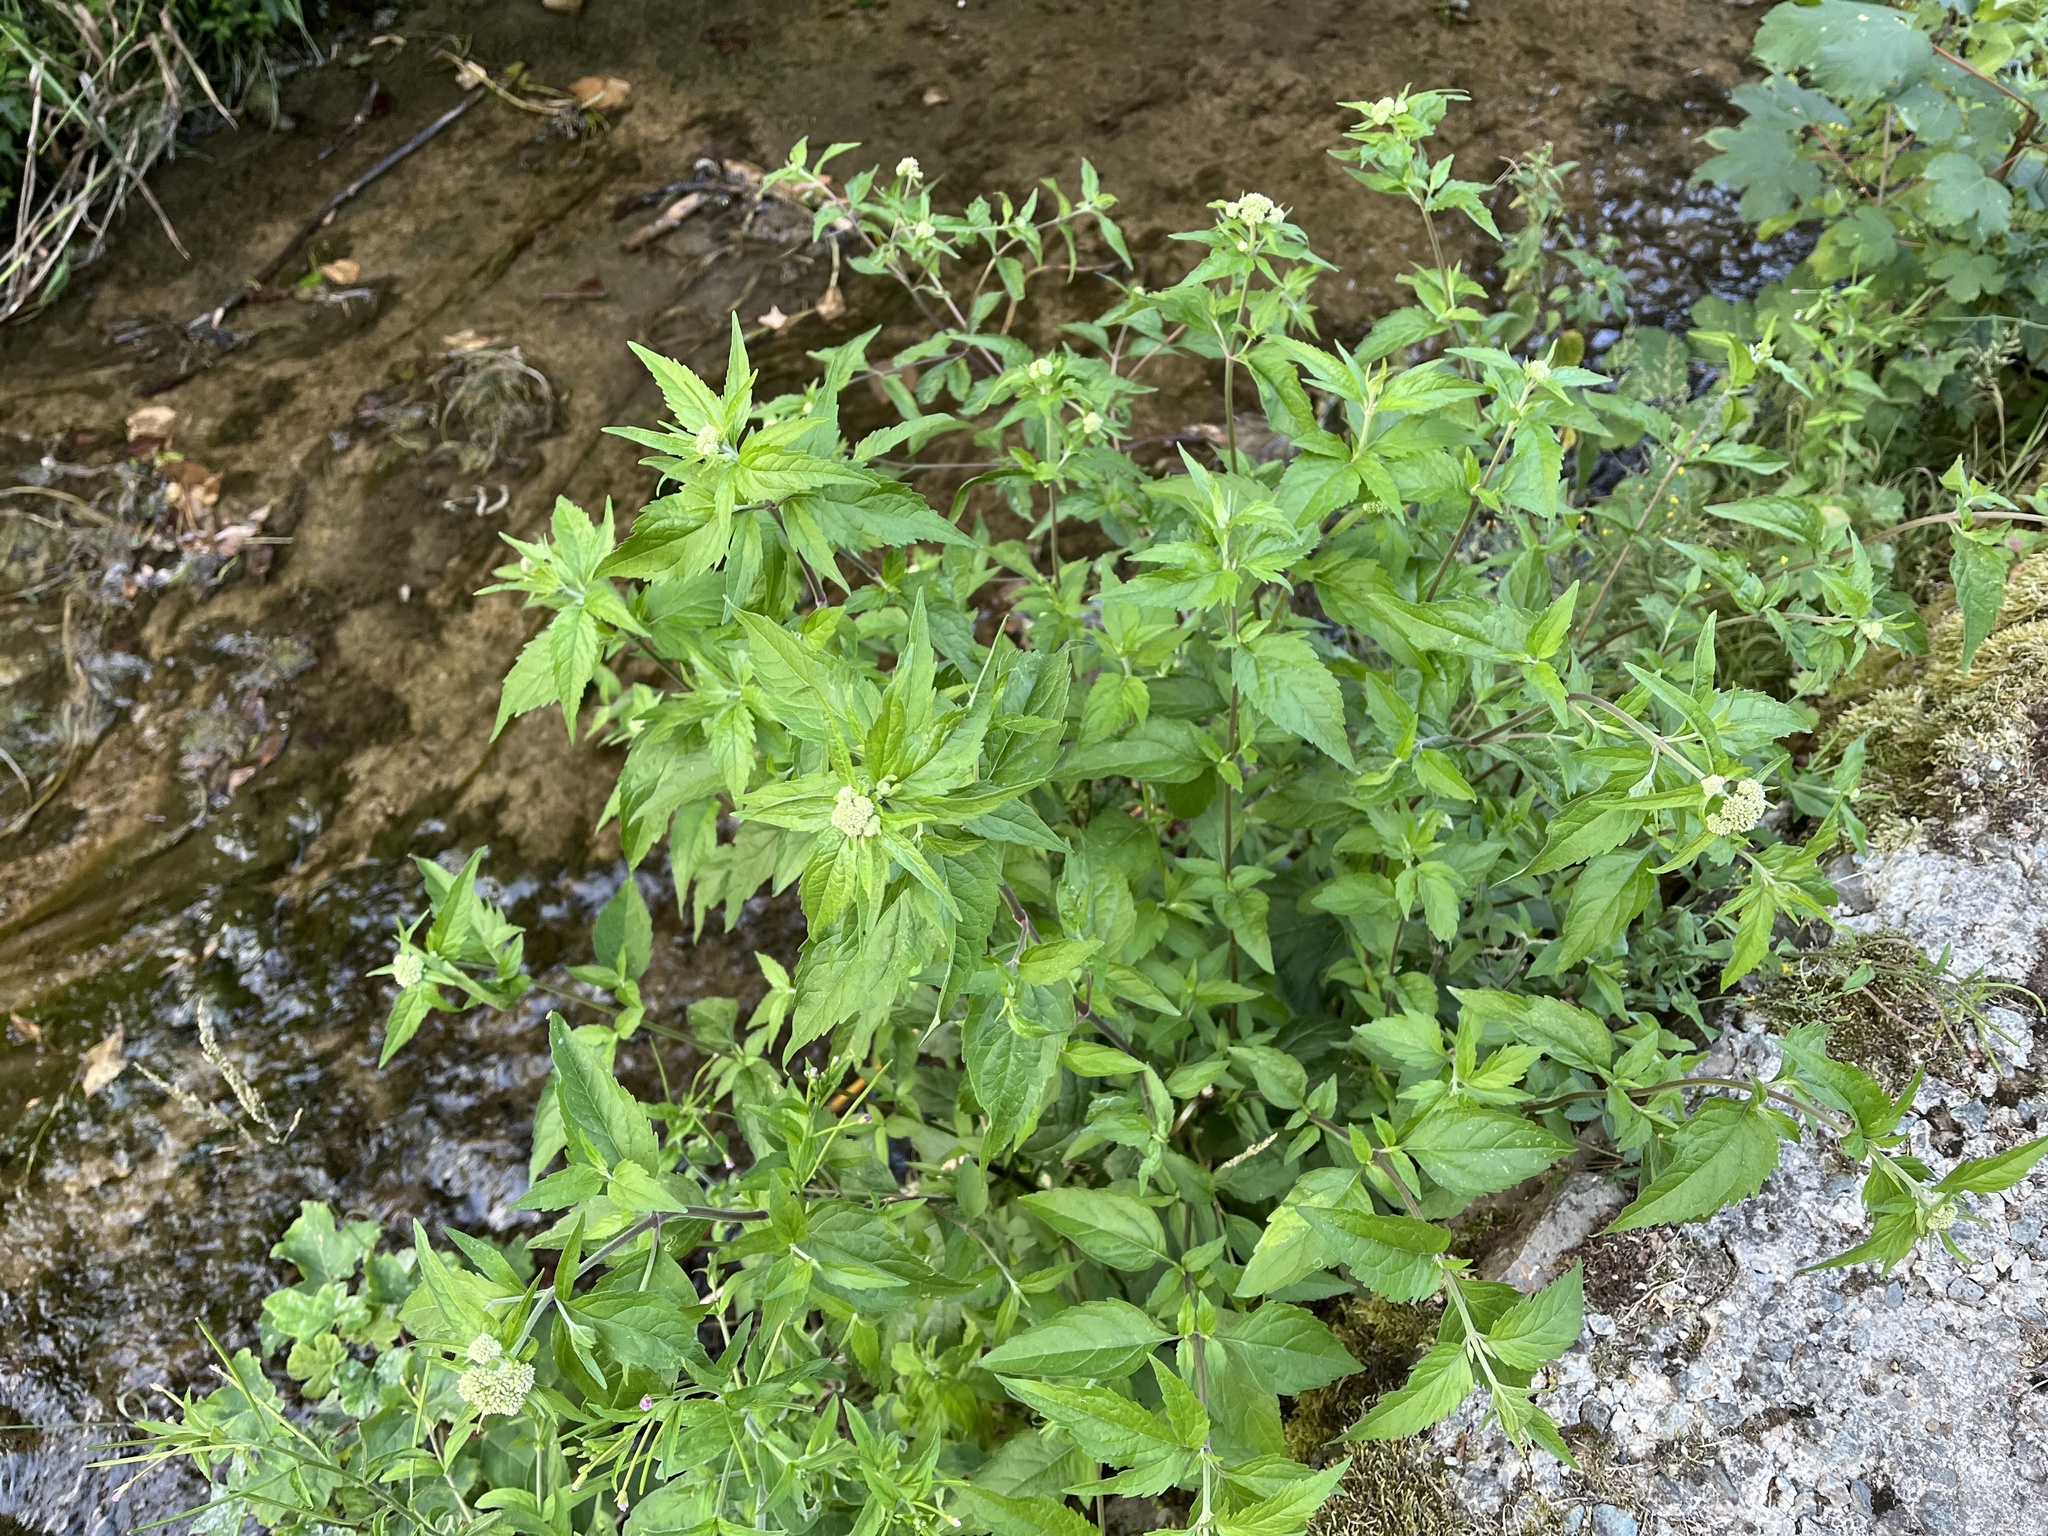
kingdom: Plantae
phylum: Tracheophyta
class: Magnoliopsida
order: Asterales
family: Asteraceae
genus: Eupatorium
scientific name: Eupatorium cannabinum
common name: Hemp-agrimony
